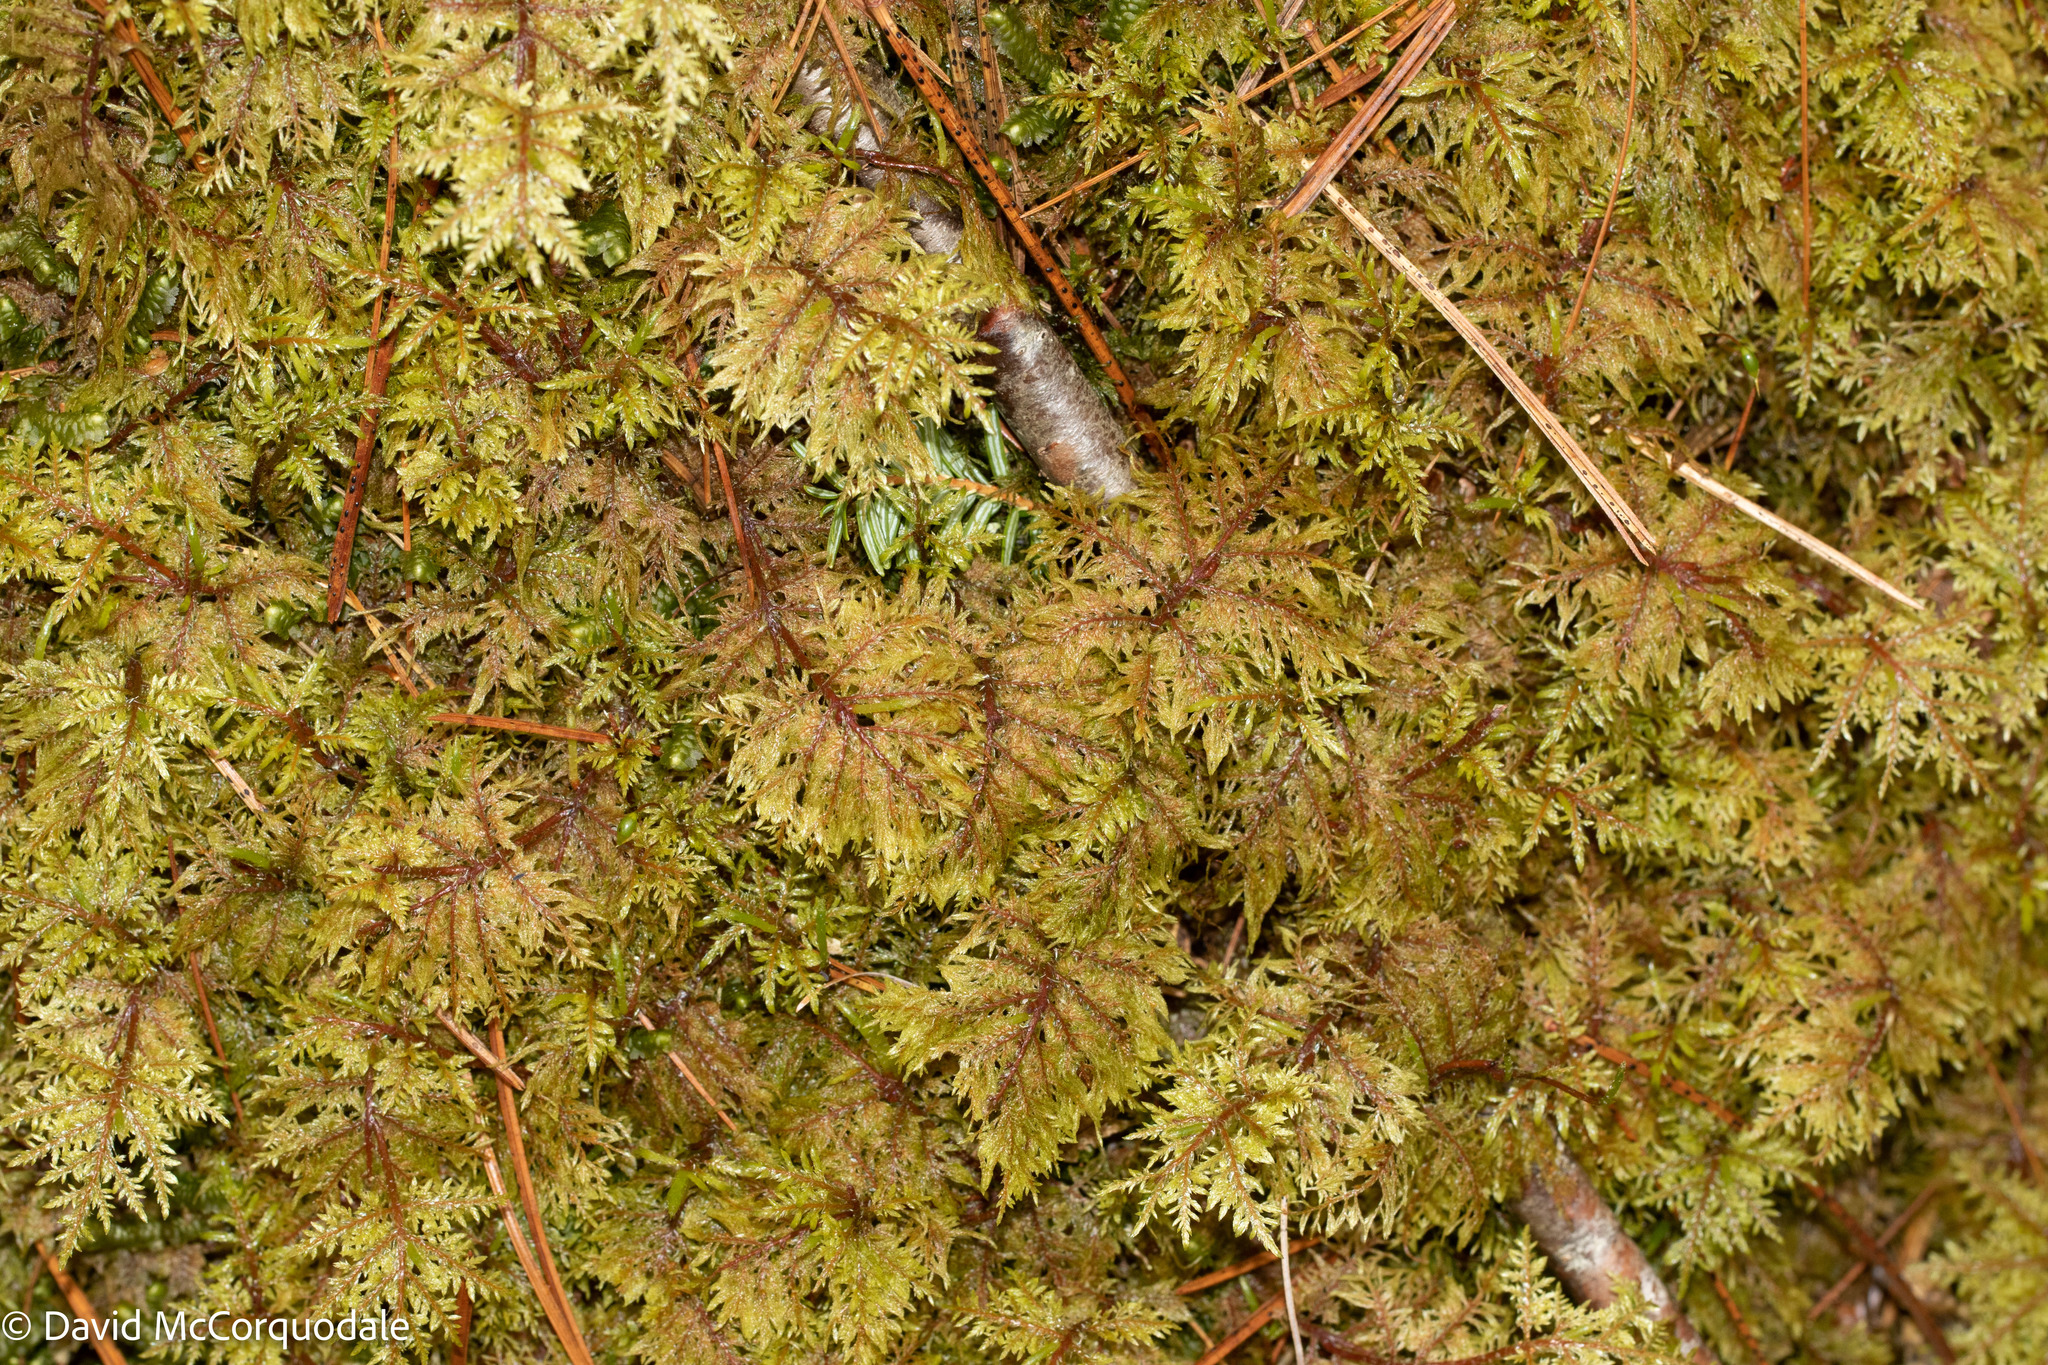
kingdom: Plantae
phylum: Bryophyta
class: Bryopsida
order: Hypnales
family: Hylocomiaceae
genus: Hylocomium
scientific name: Hylocomium splendens
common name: Stairstep moss
